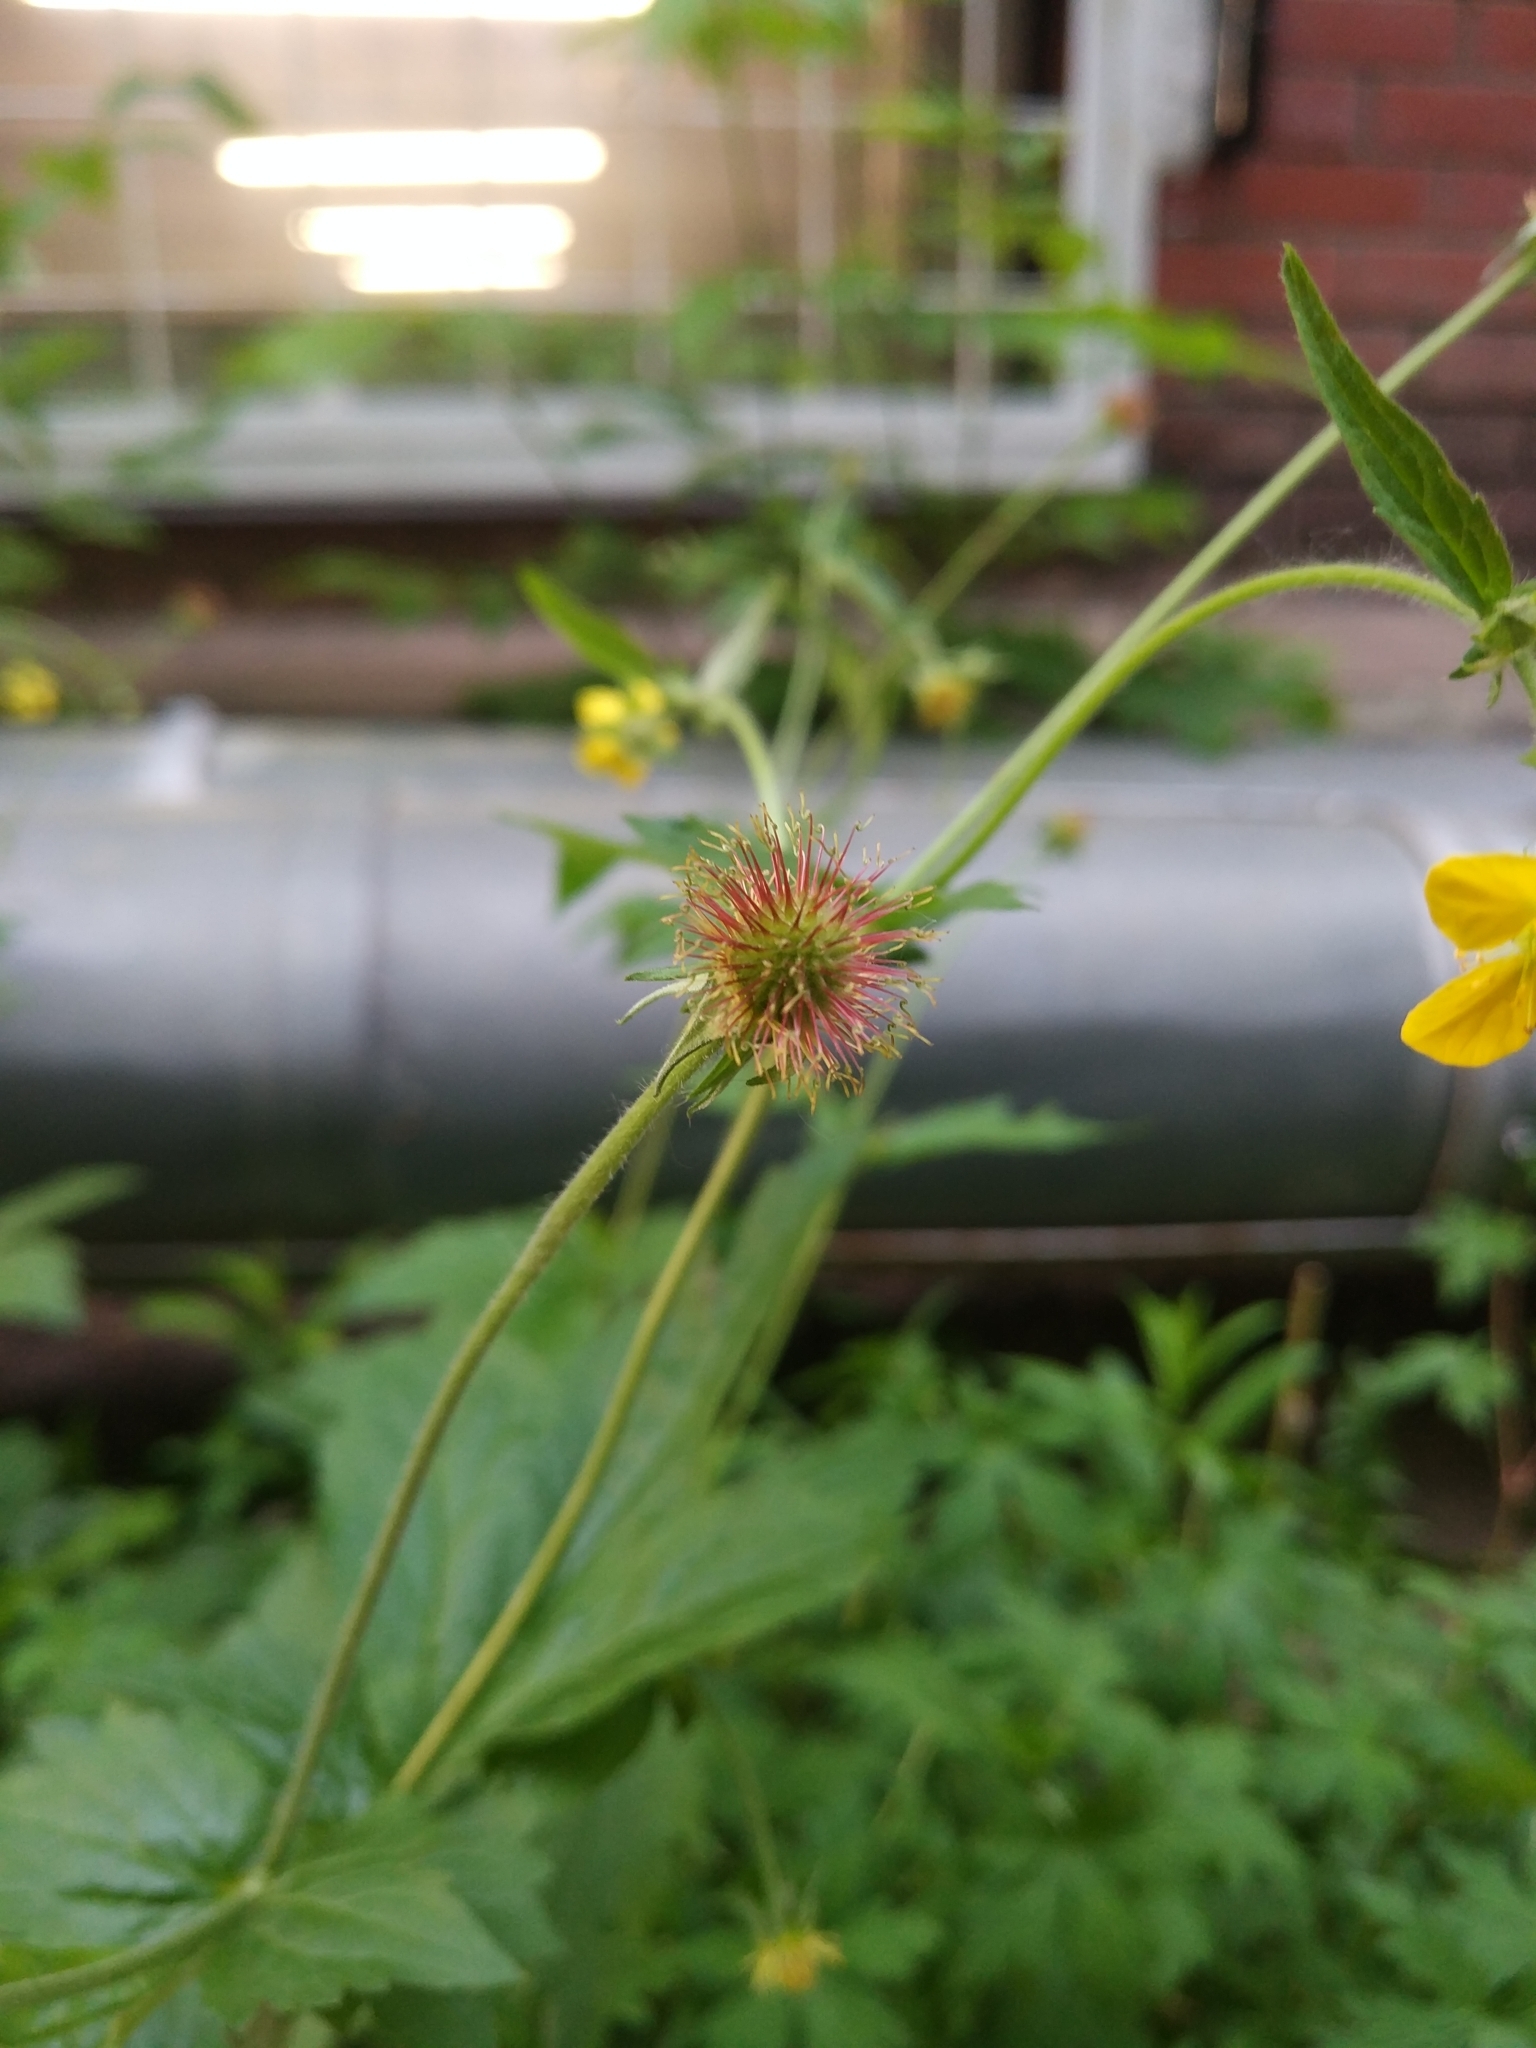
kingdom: Plantae
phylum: Tracheophyta
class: Magnoliopsida
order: Rosales
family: Rosaceae
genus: Geum
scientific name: Geum urbanum
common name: Wood avens
